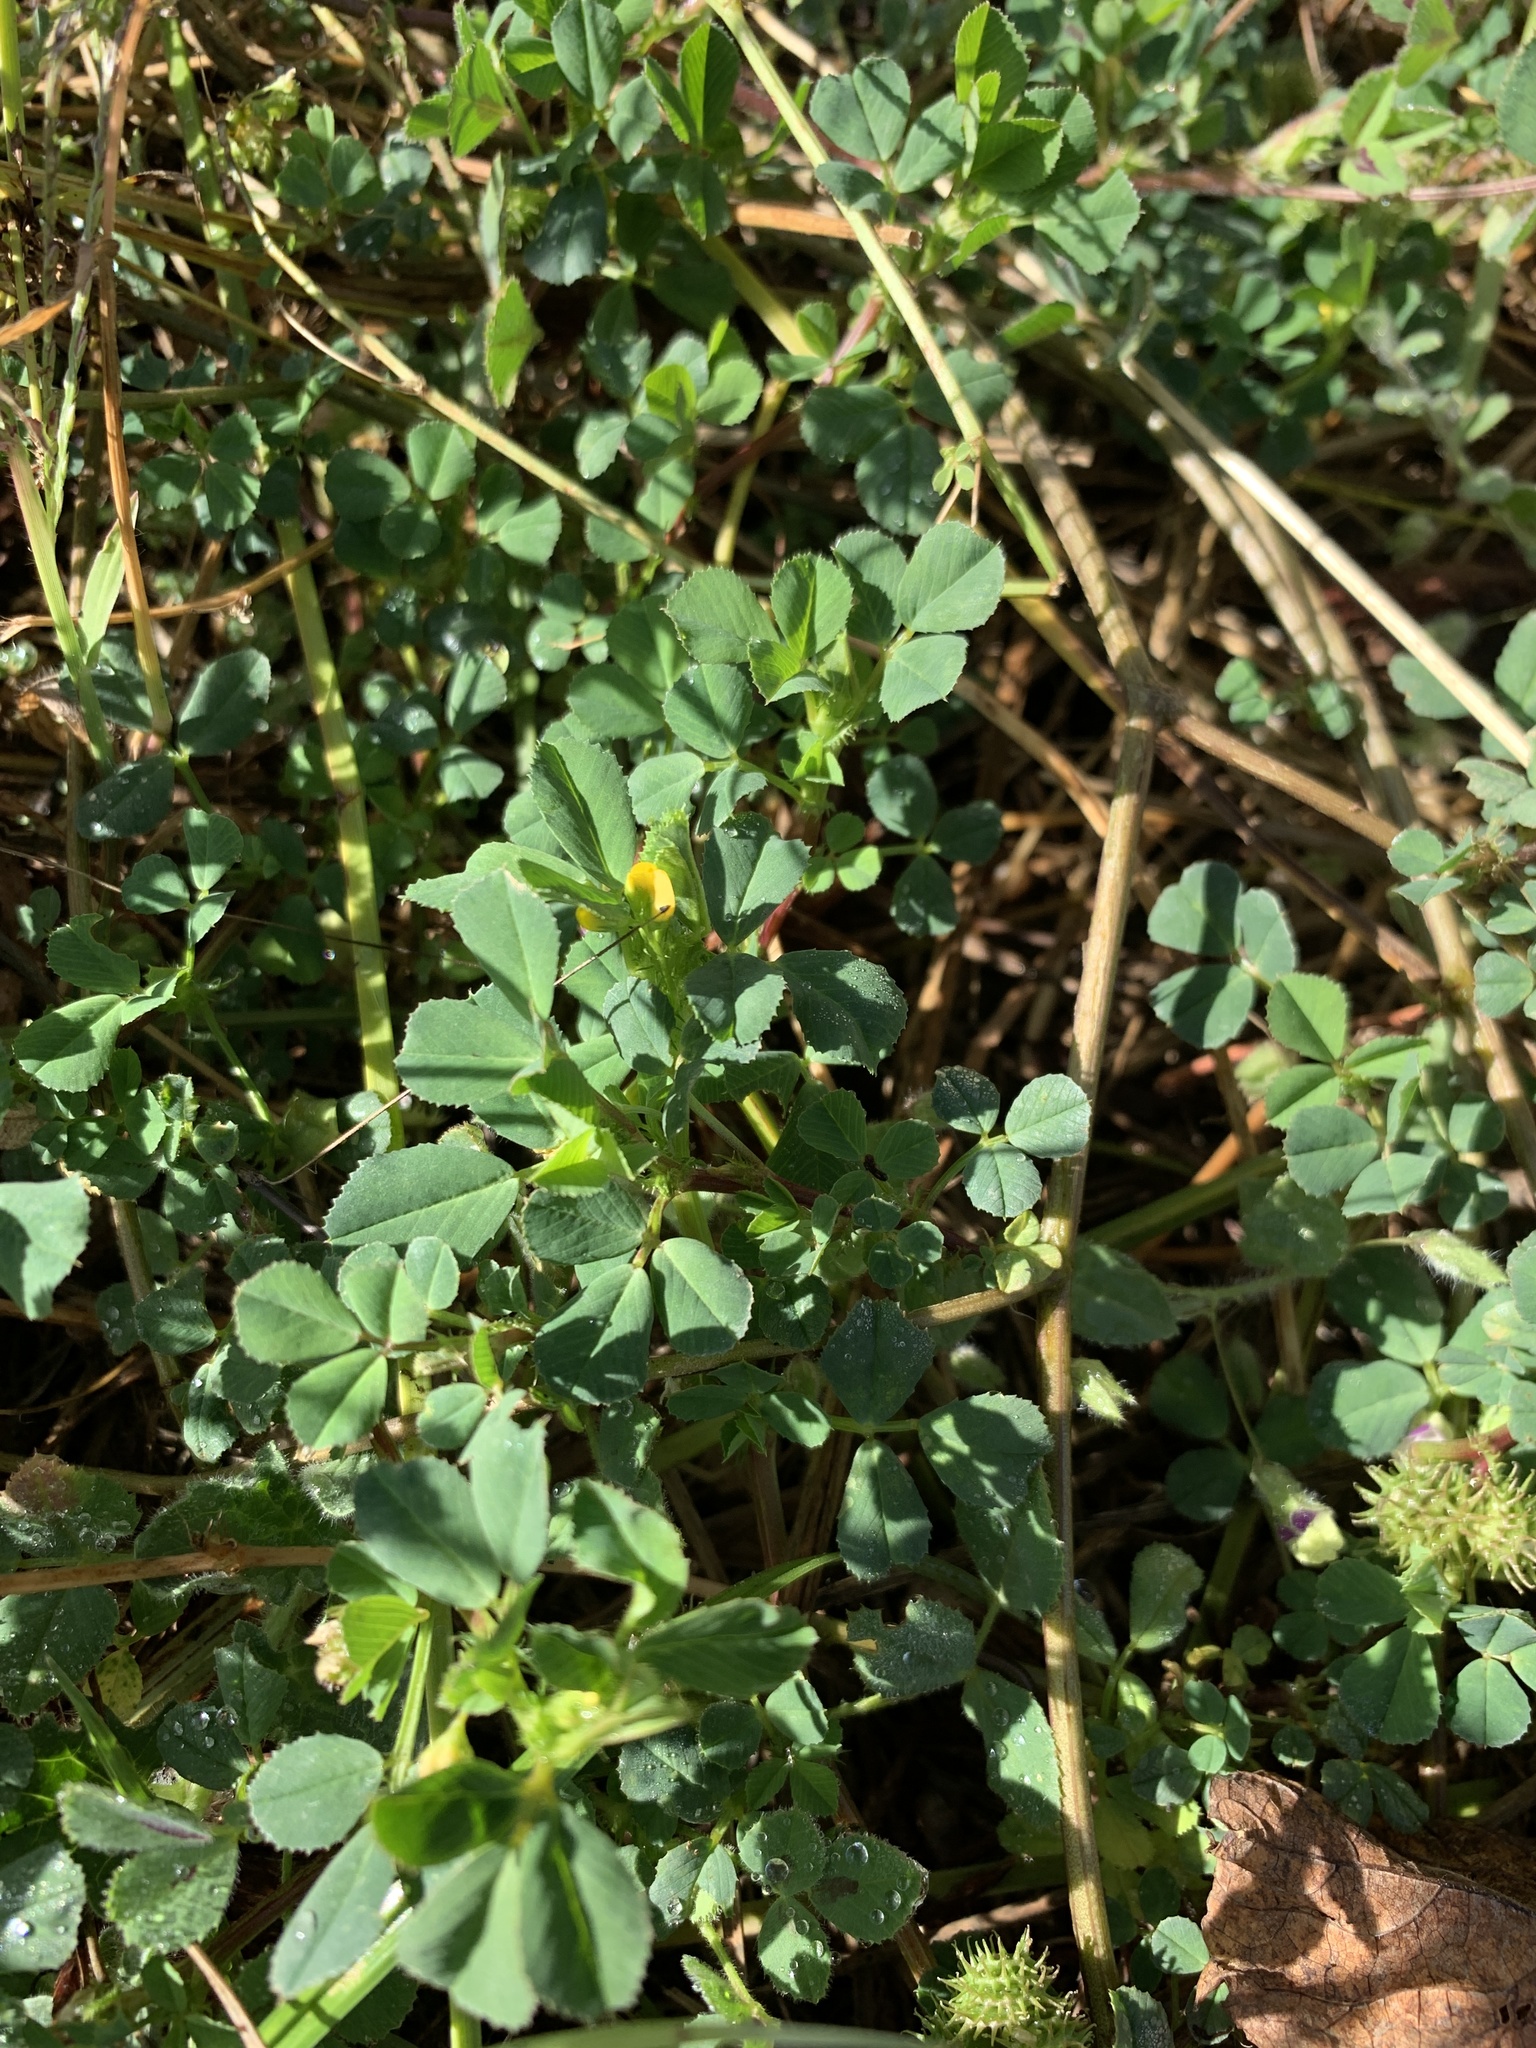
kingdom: Plantae
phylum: Tracheophyta
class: Magnoliopsida
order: Fabales
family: Fabaceae
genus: Medicago
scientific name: Medicago polymorpha
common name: Burclover
